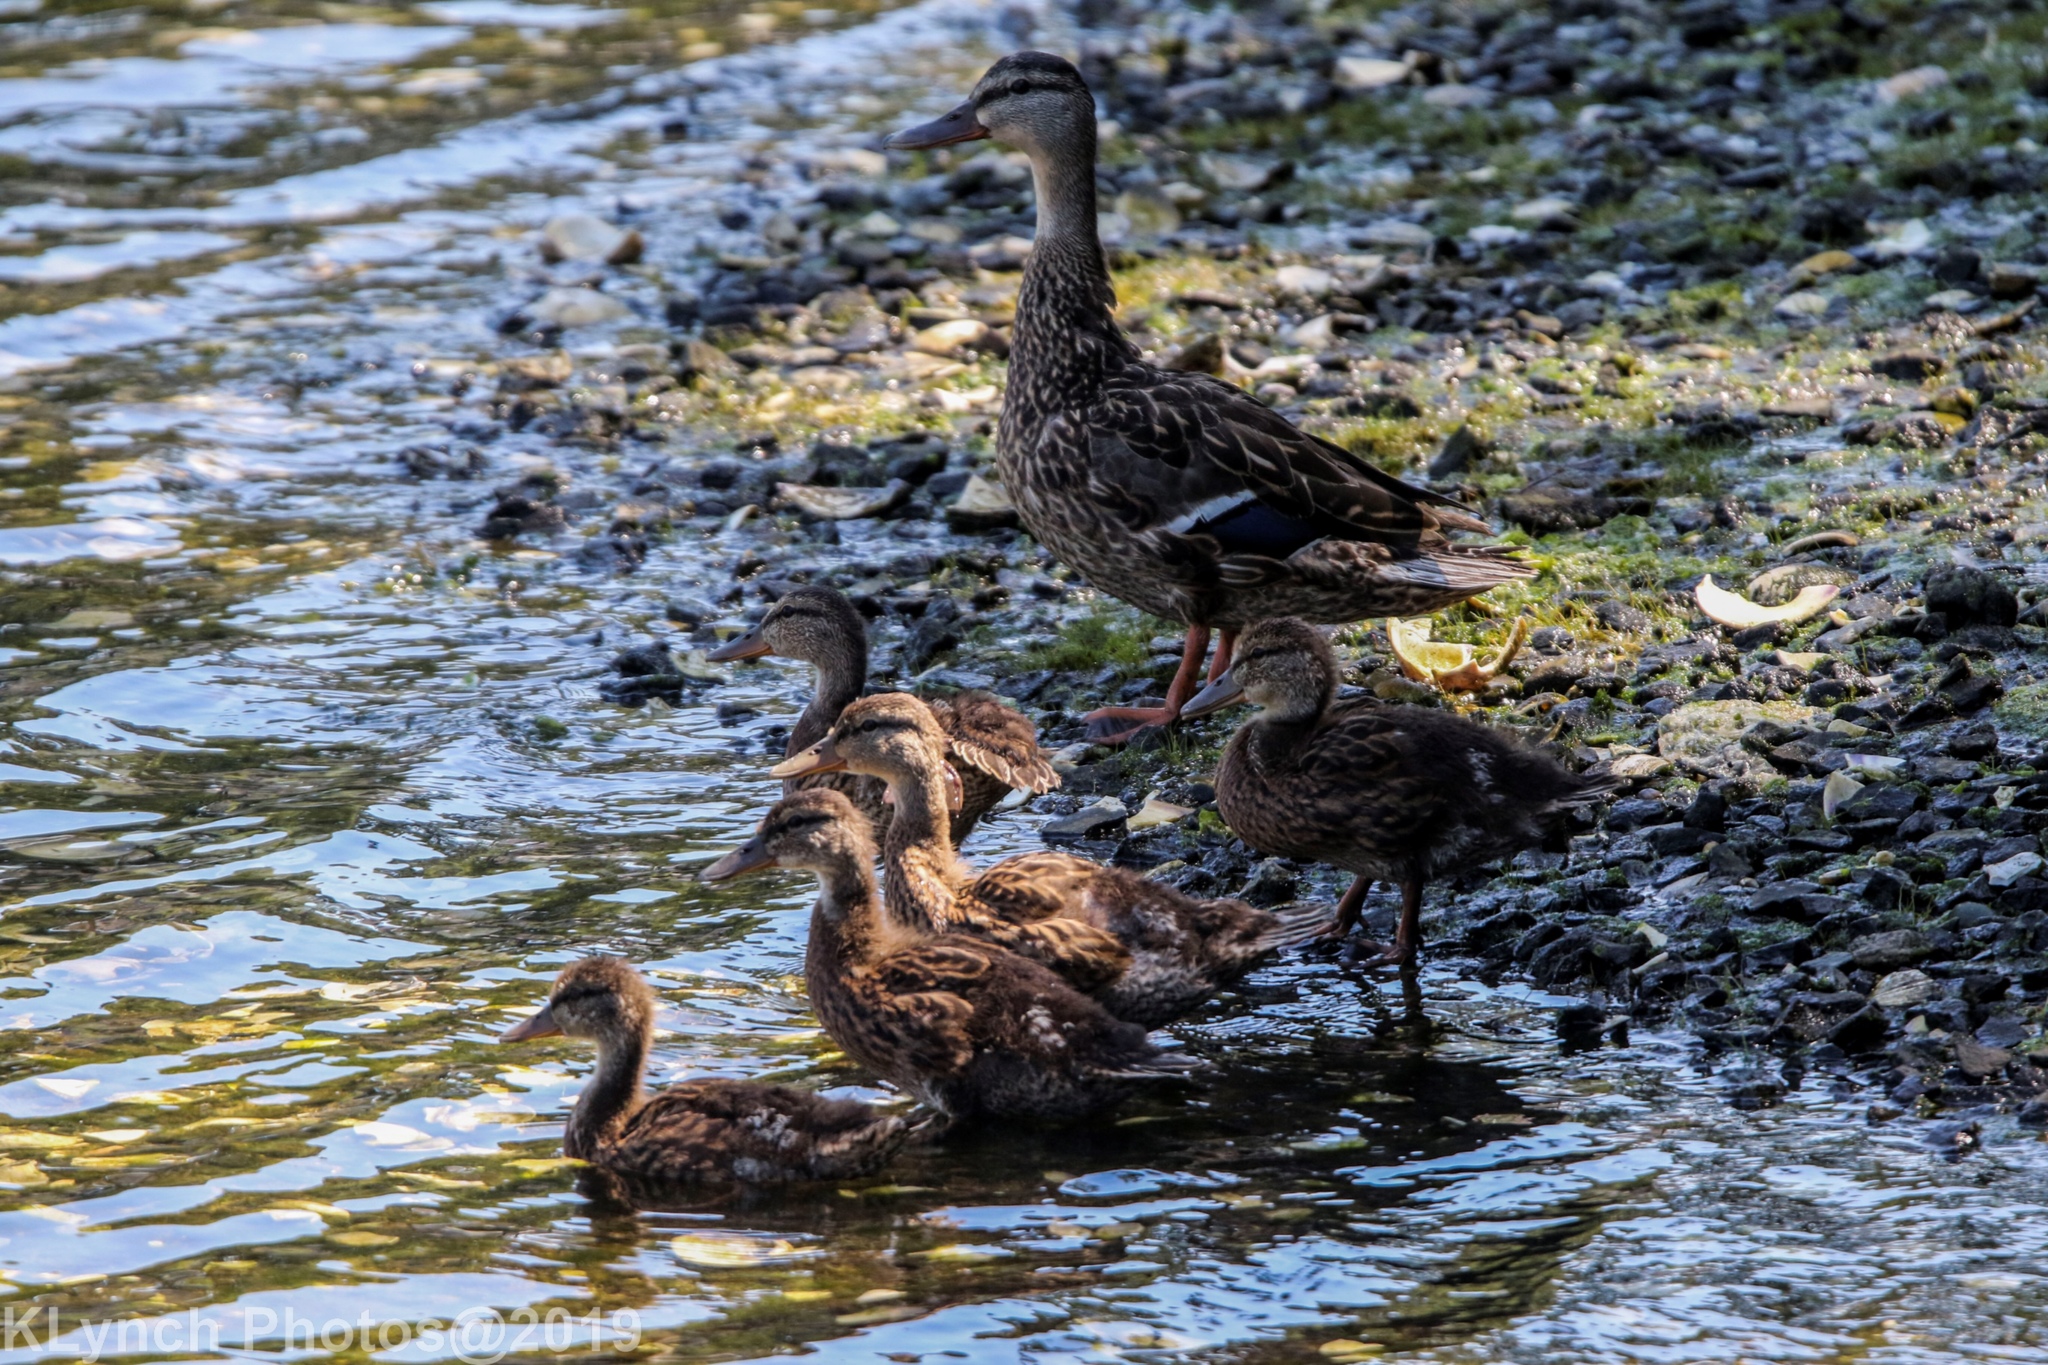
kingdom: Animalia
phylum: Chordata
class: Aves
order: Anseriformes
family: Anatidae
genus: Anas
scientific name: Anas platyrhynchos
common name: Mallard
